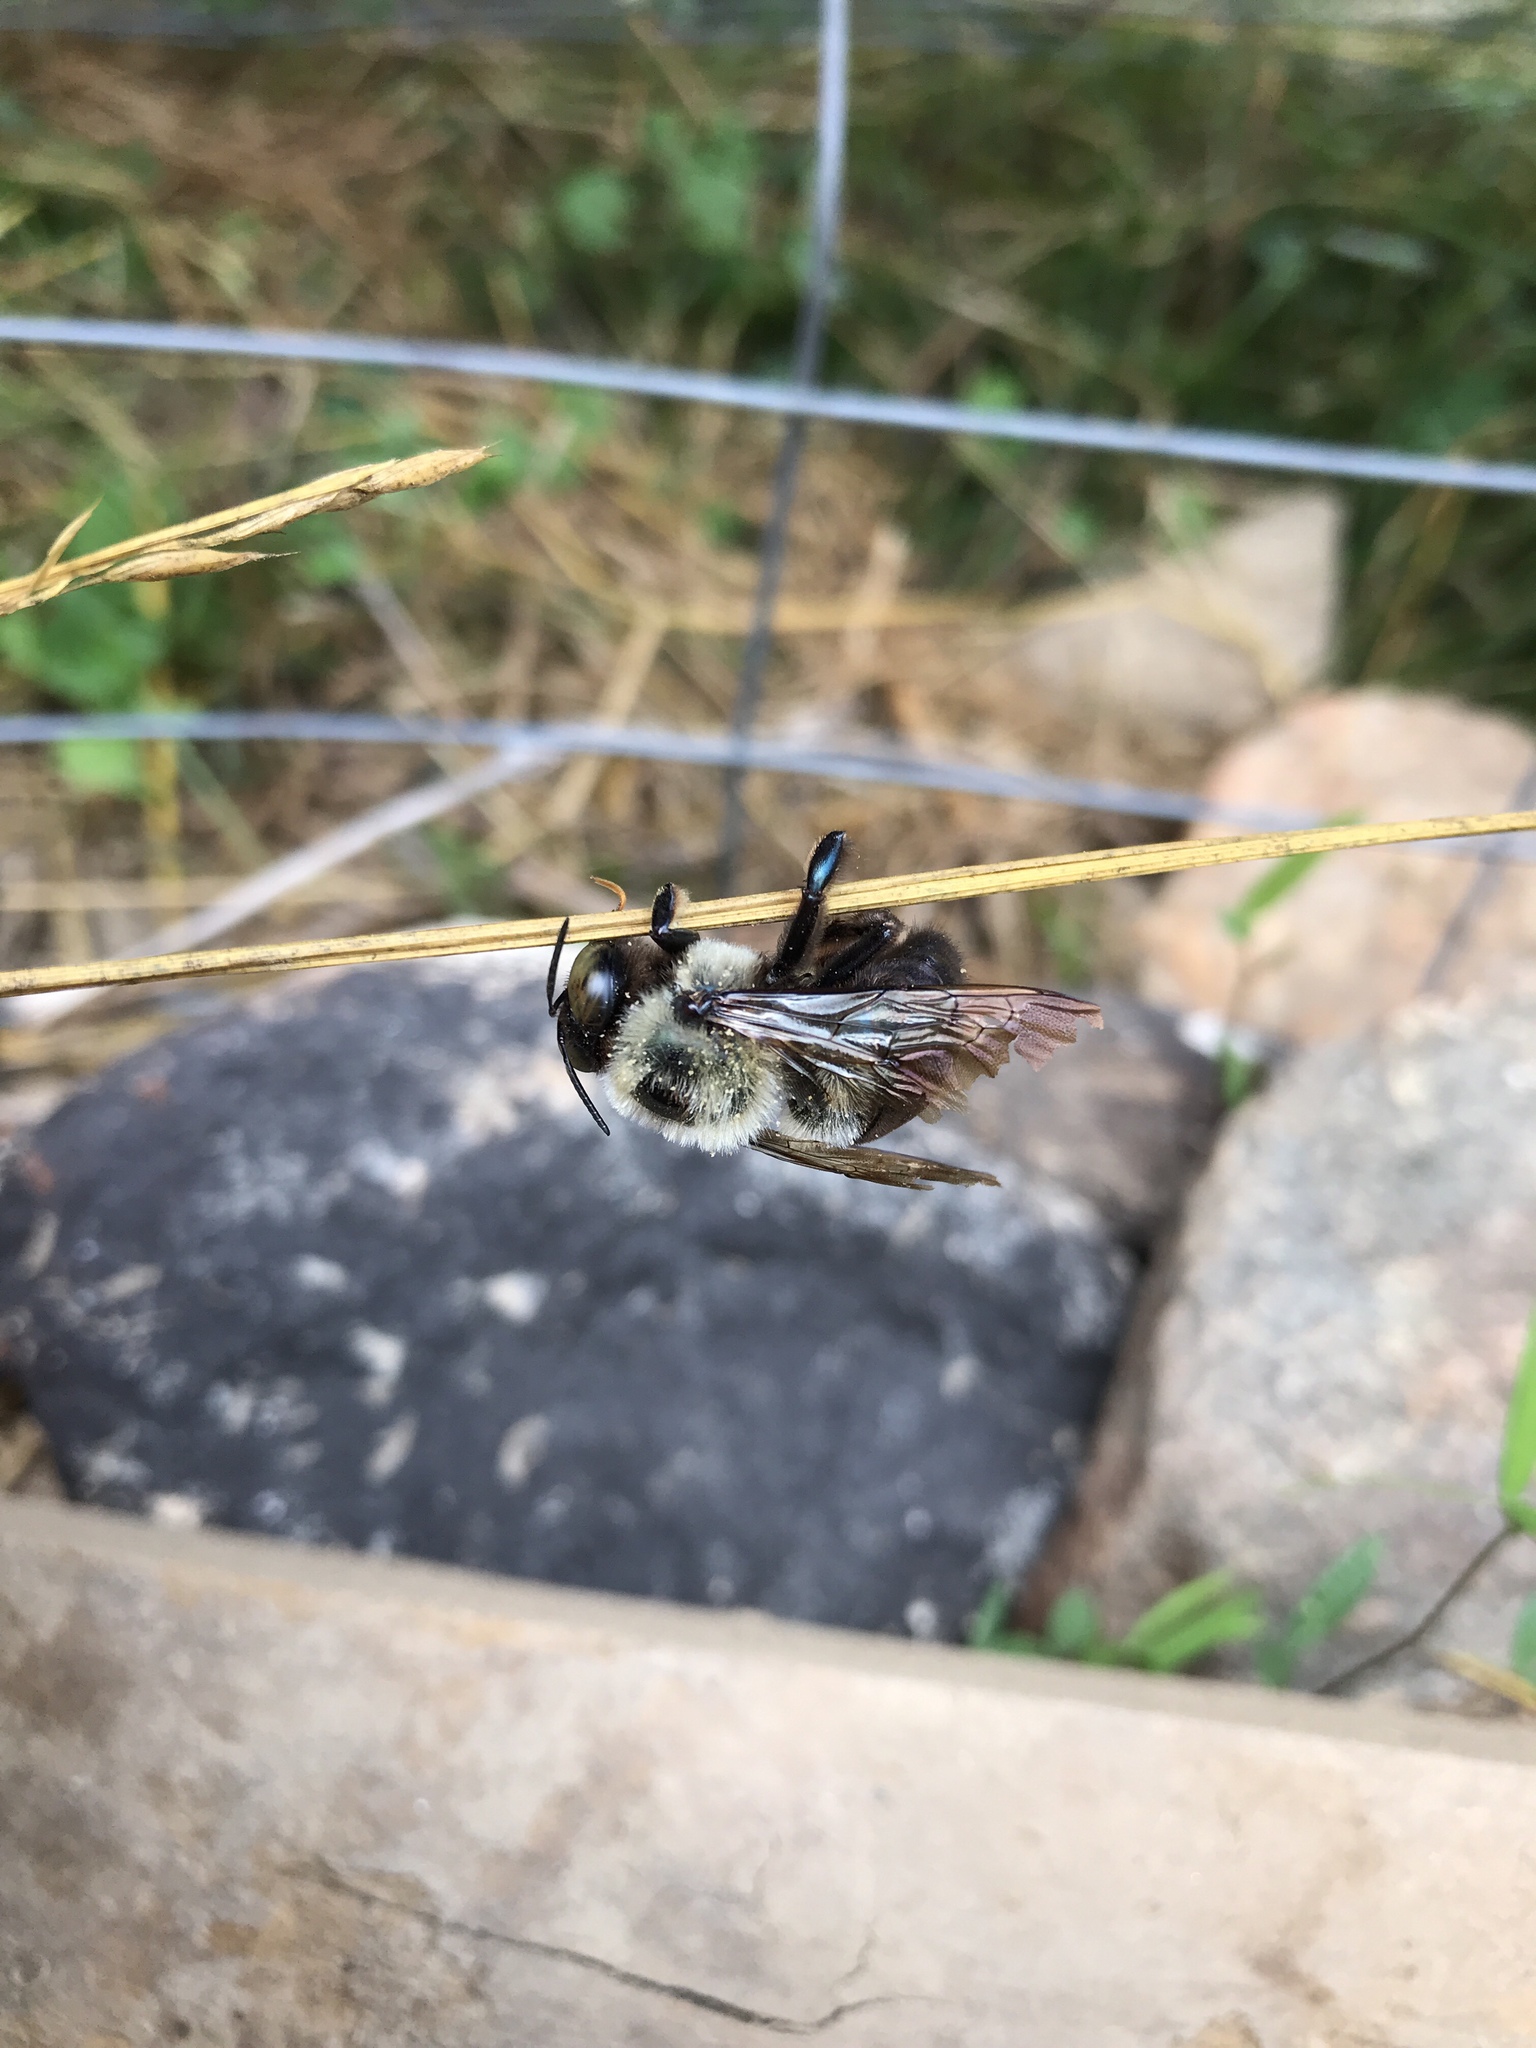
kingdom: Animalia
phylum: Arthropoda
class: Insecta
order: Hymenoptera
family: Apidae
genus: Xylocopa
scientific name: Xylocopa virginica
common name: Carpenter bee
